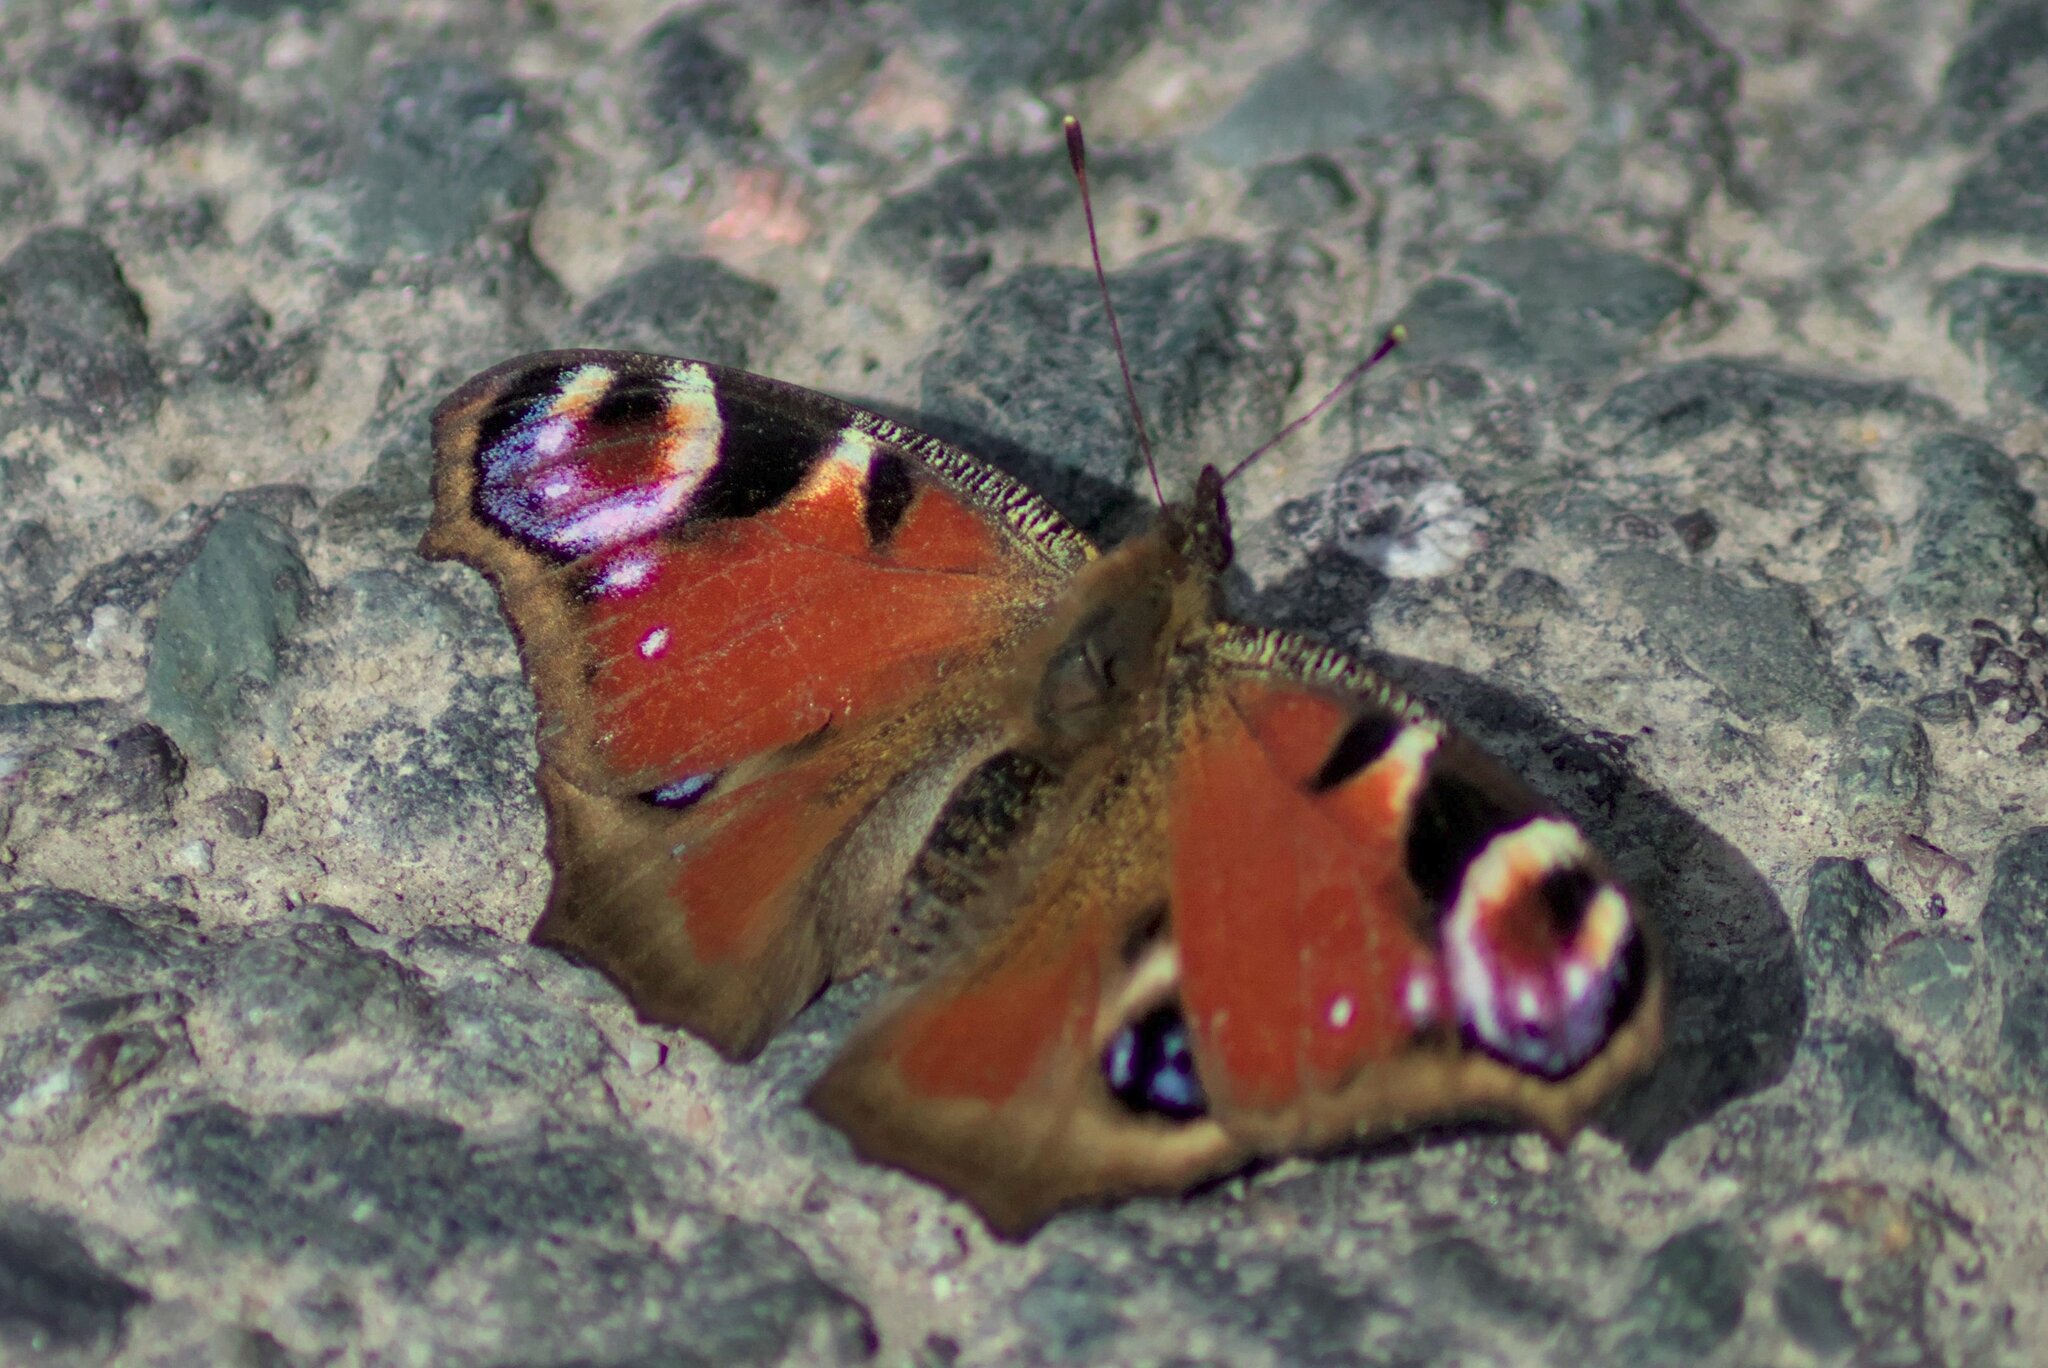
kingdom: Animalia
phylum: Arthropoda
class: Insecta
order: Lepidoptera
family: Nymphalidae
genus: Aglais
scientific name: Aglais io
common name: Peacock
